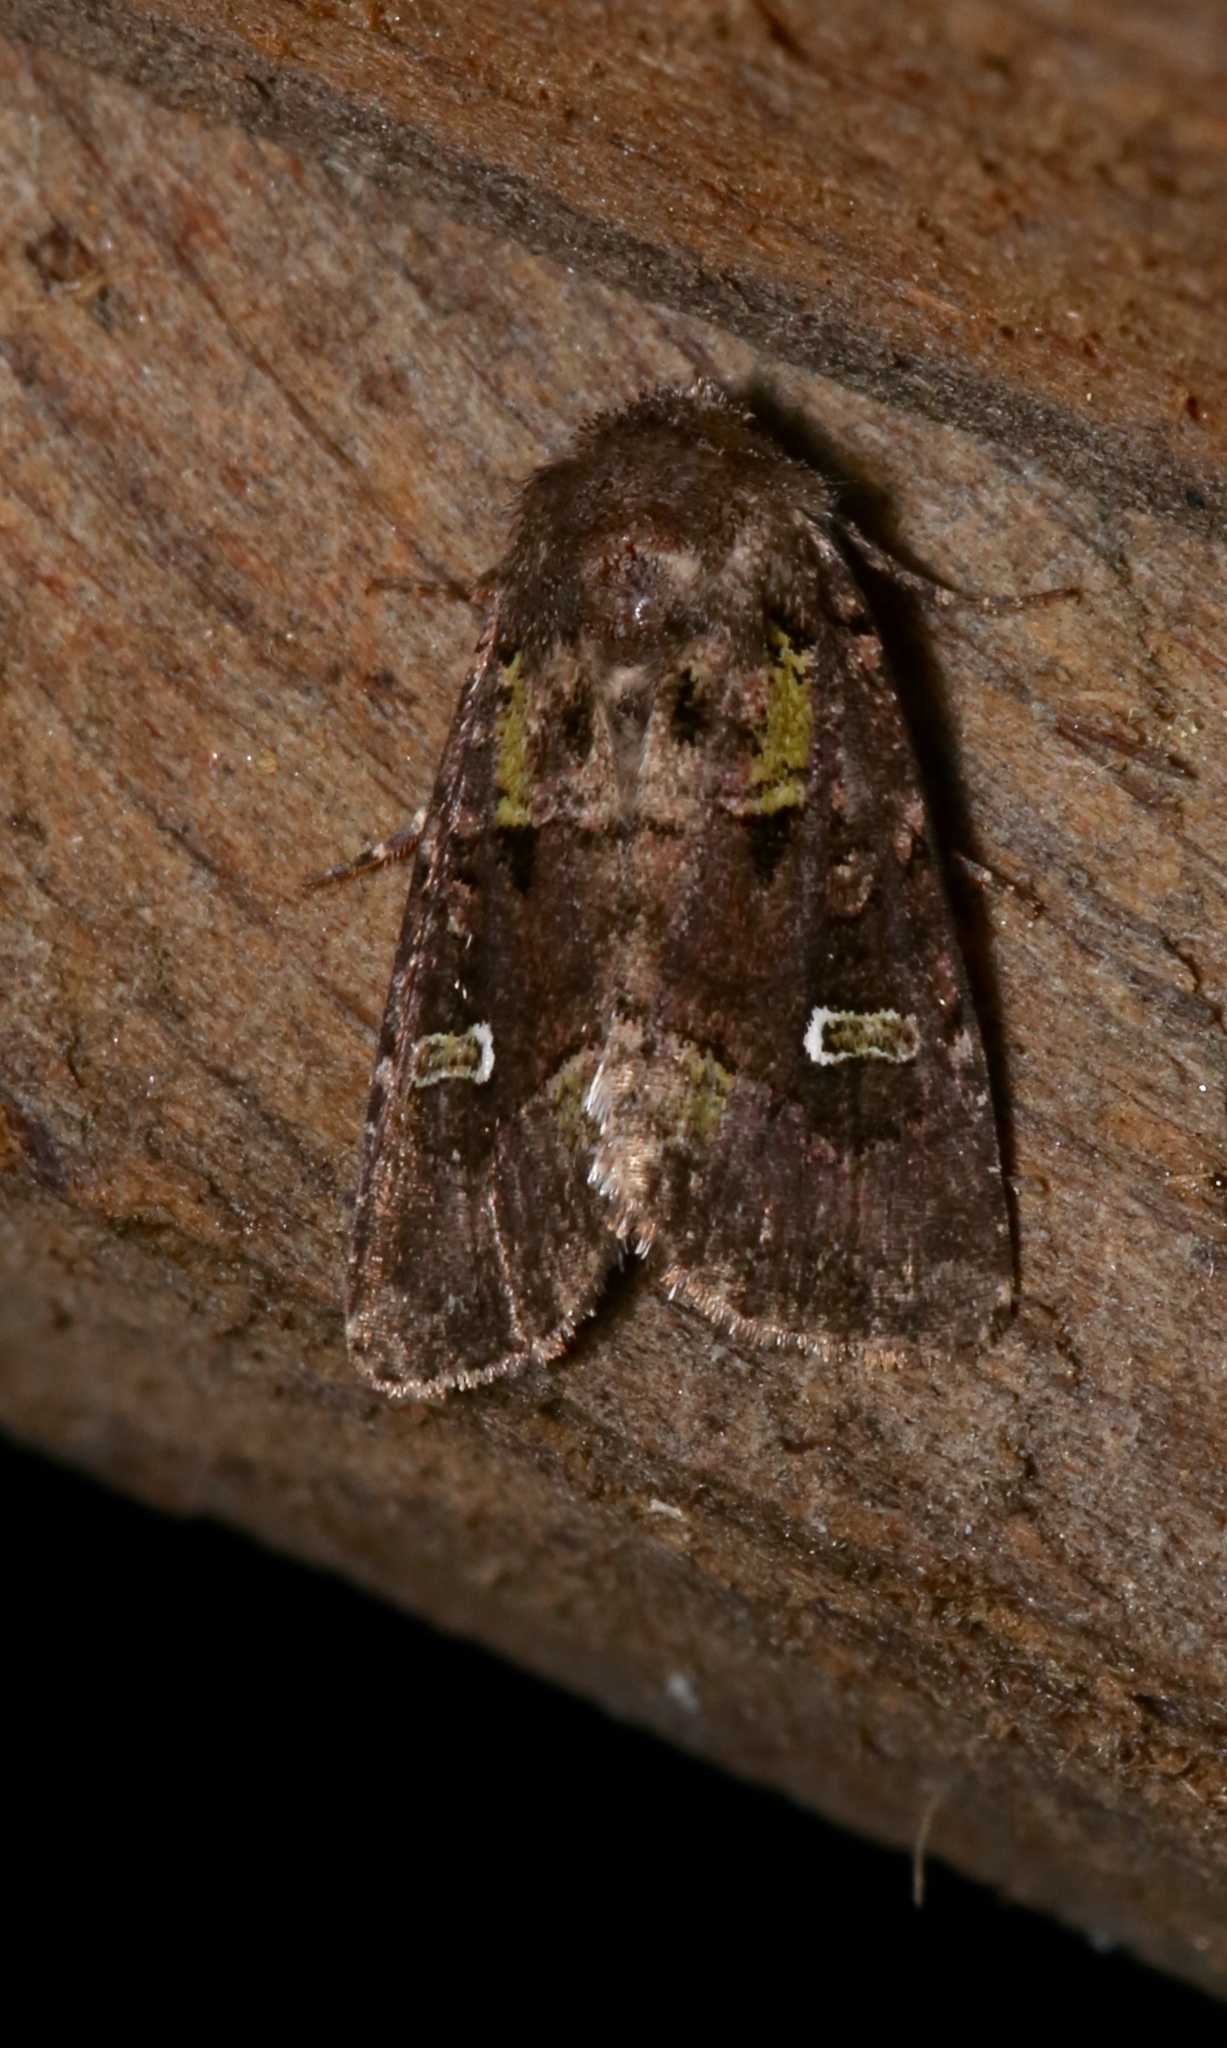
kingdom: Animalia
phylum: Arthropoda
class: Insecta
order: Lepidoptera
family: Noctuidae
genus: Lacinipolia
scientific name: Lacinipolia renigera
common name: Kidney-spotted minor
